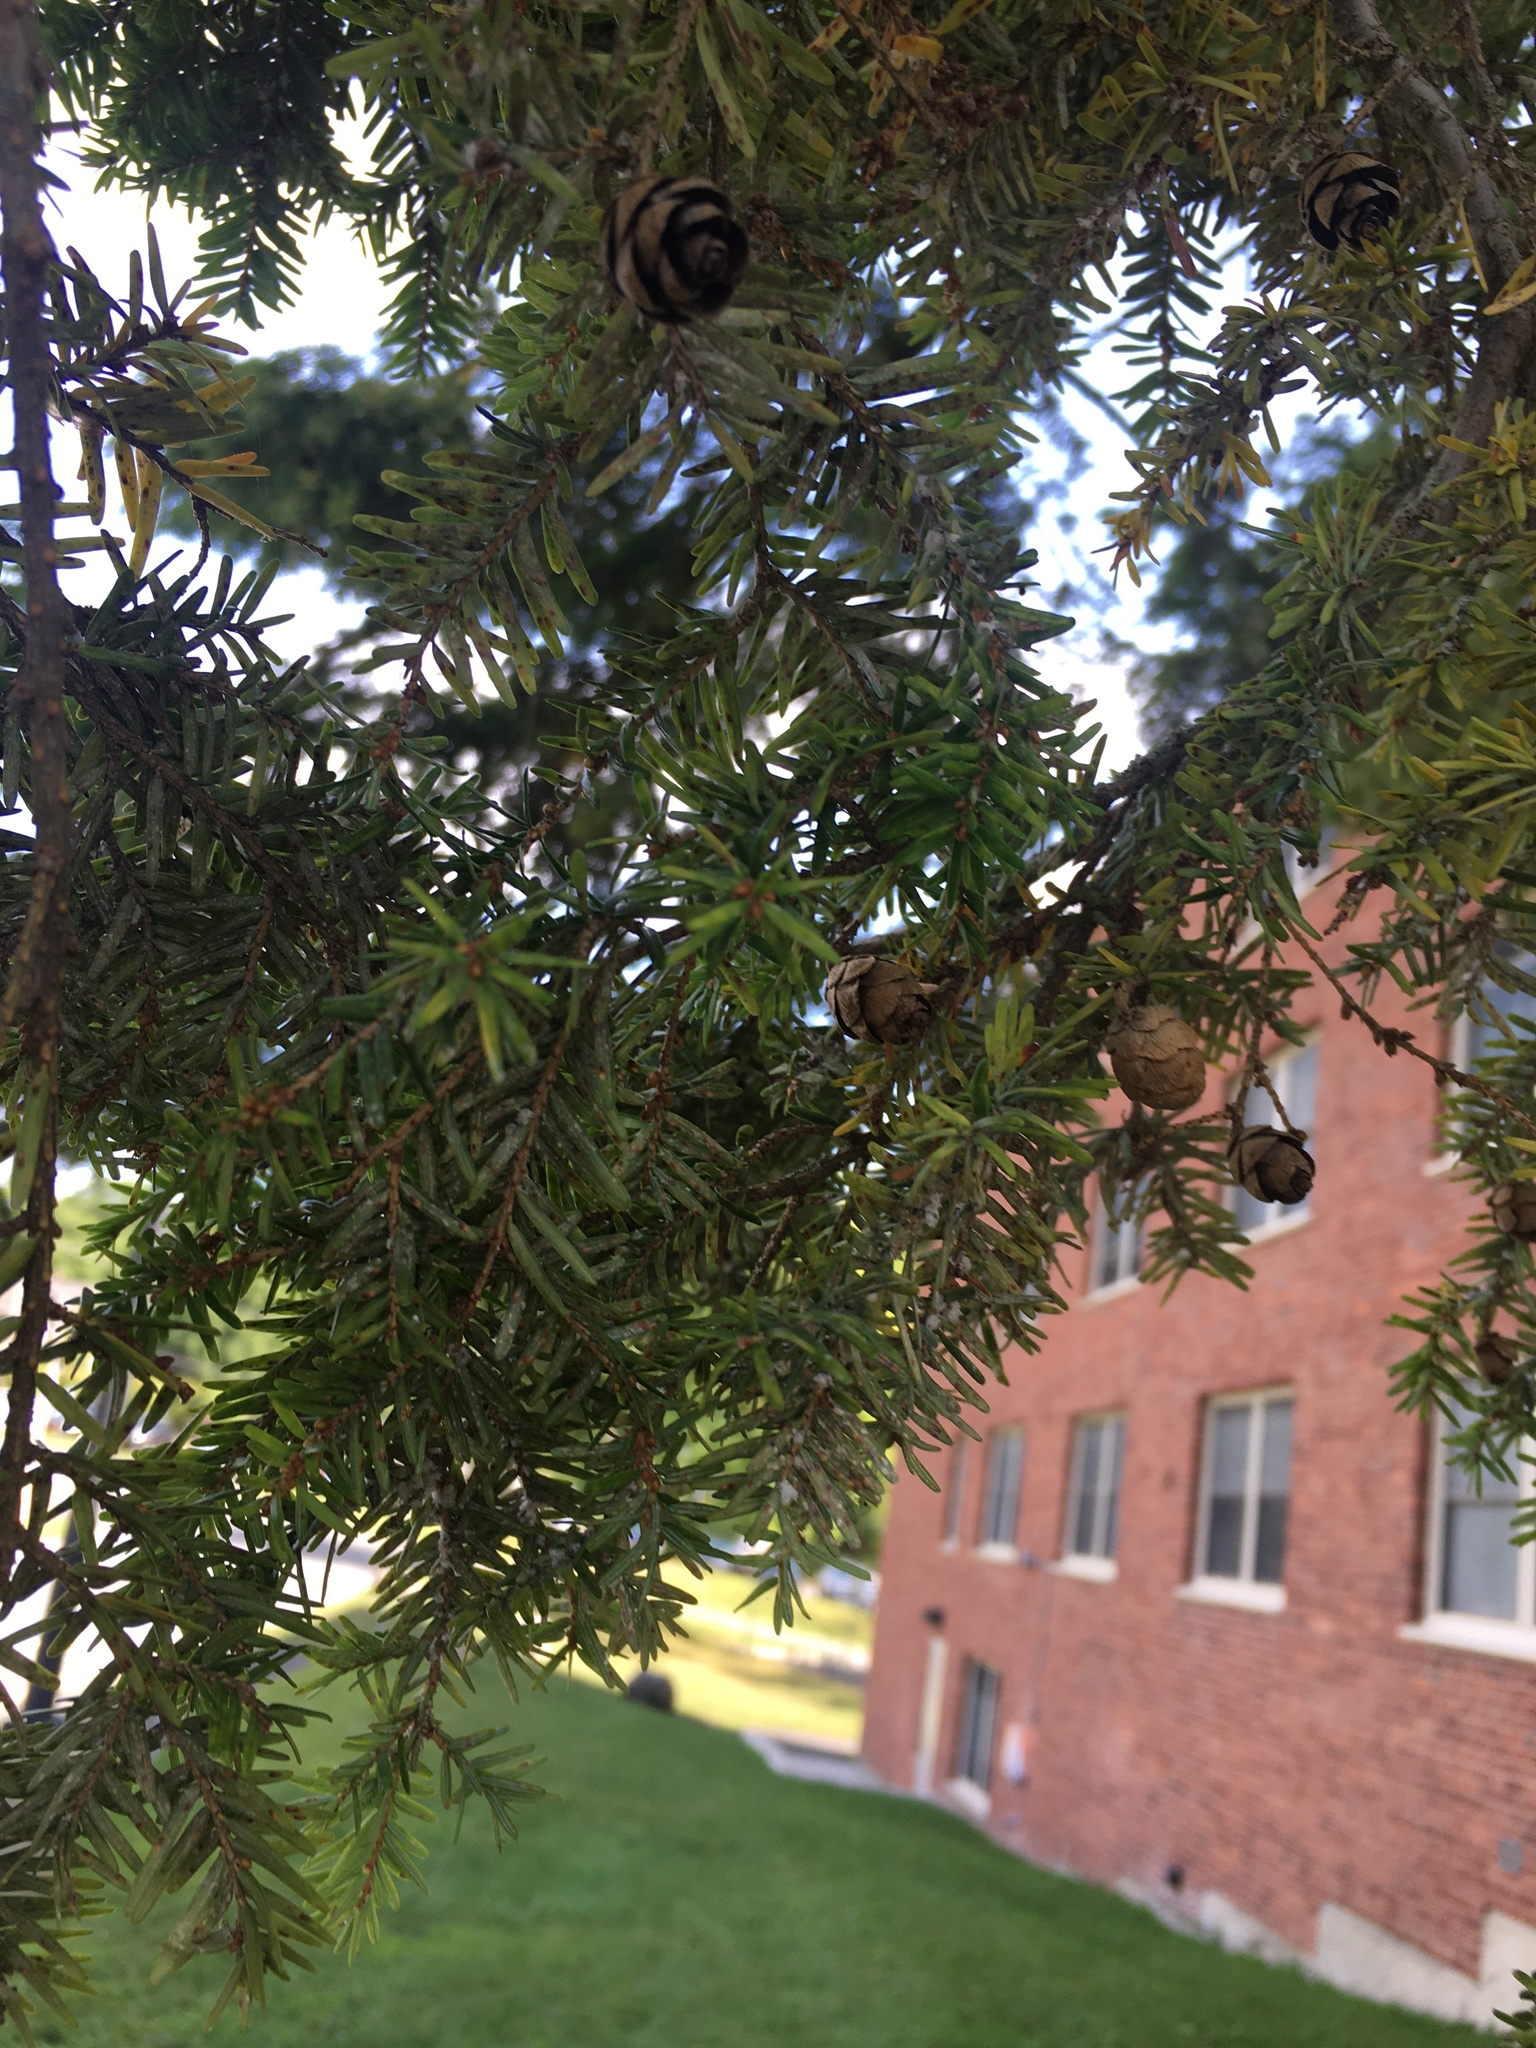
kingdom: Plantae
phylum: Tracheophyta
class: Pinopsida
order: Pinales
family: Pinaceae
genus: Tsuga
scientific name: Tsuga
